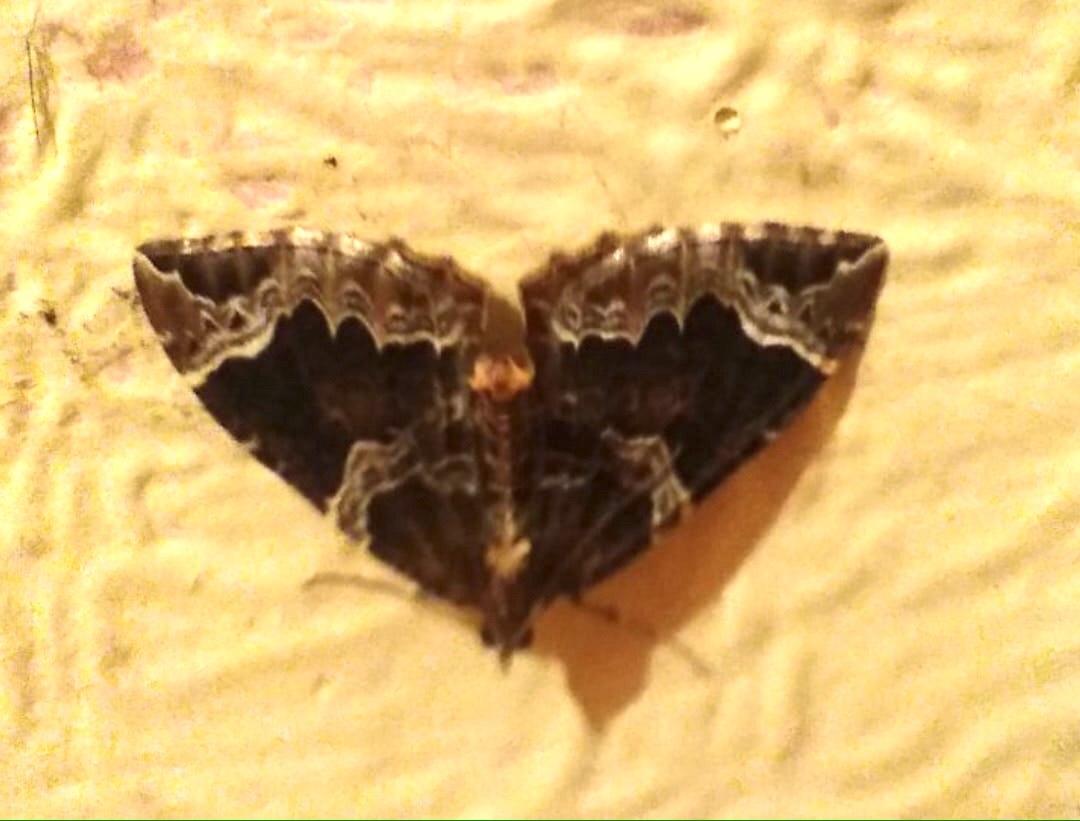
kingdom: Animalia
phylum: Arthropoda
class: Insecta
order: Lepidoptera
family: Geometridae
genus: Eulithis
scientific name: Eulithis prunata
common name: Phoenix
